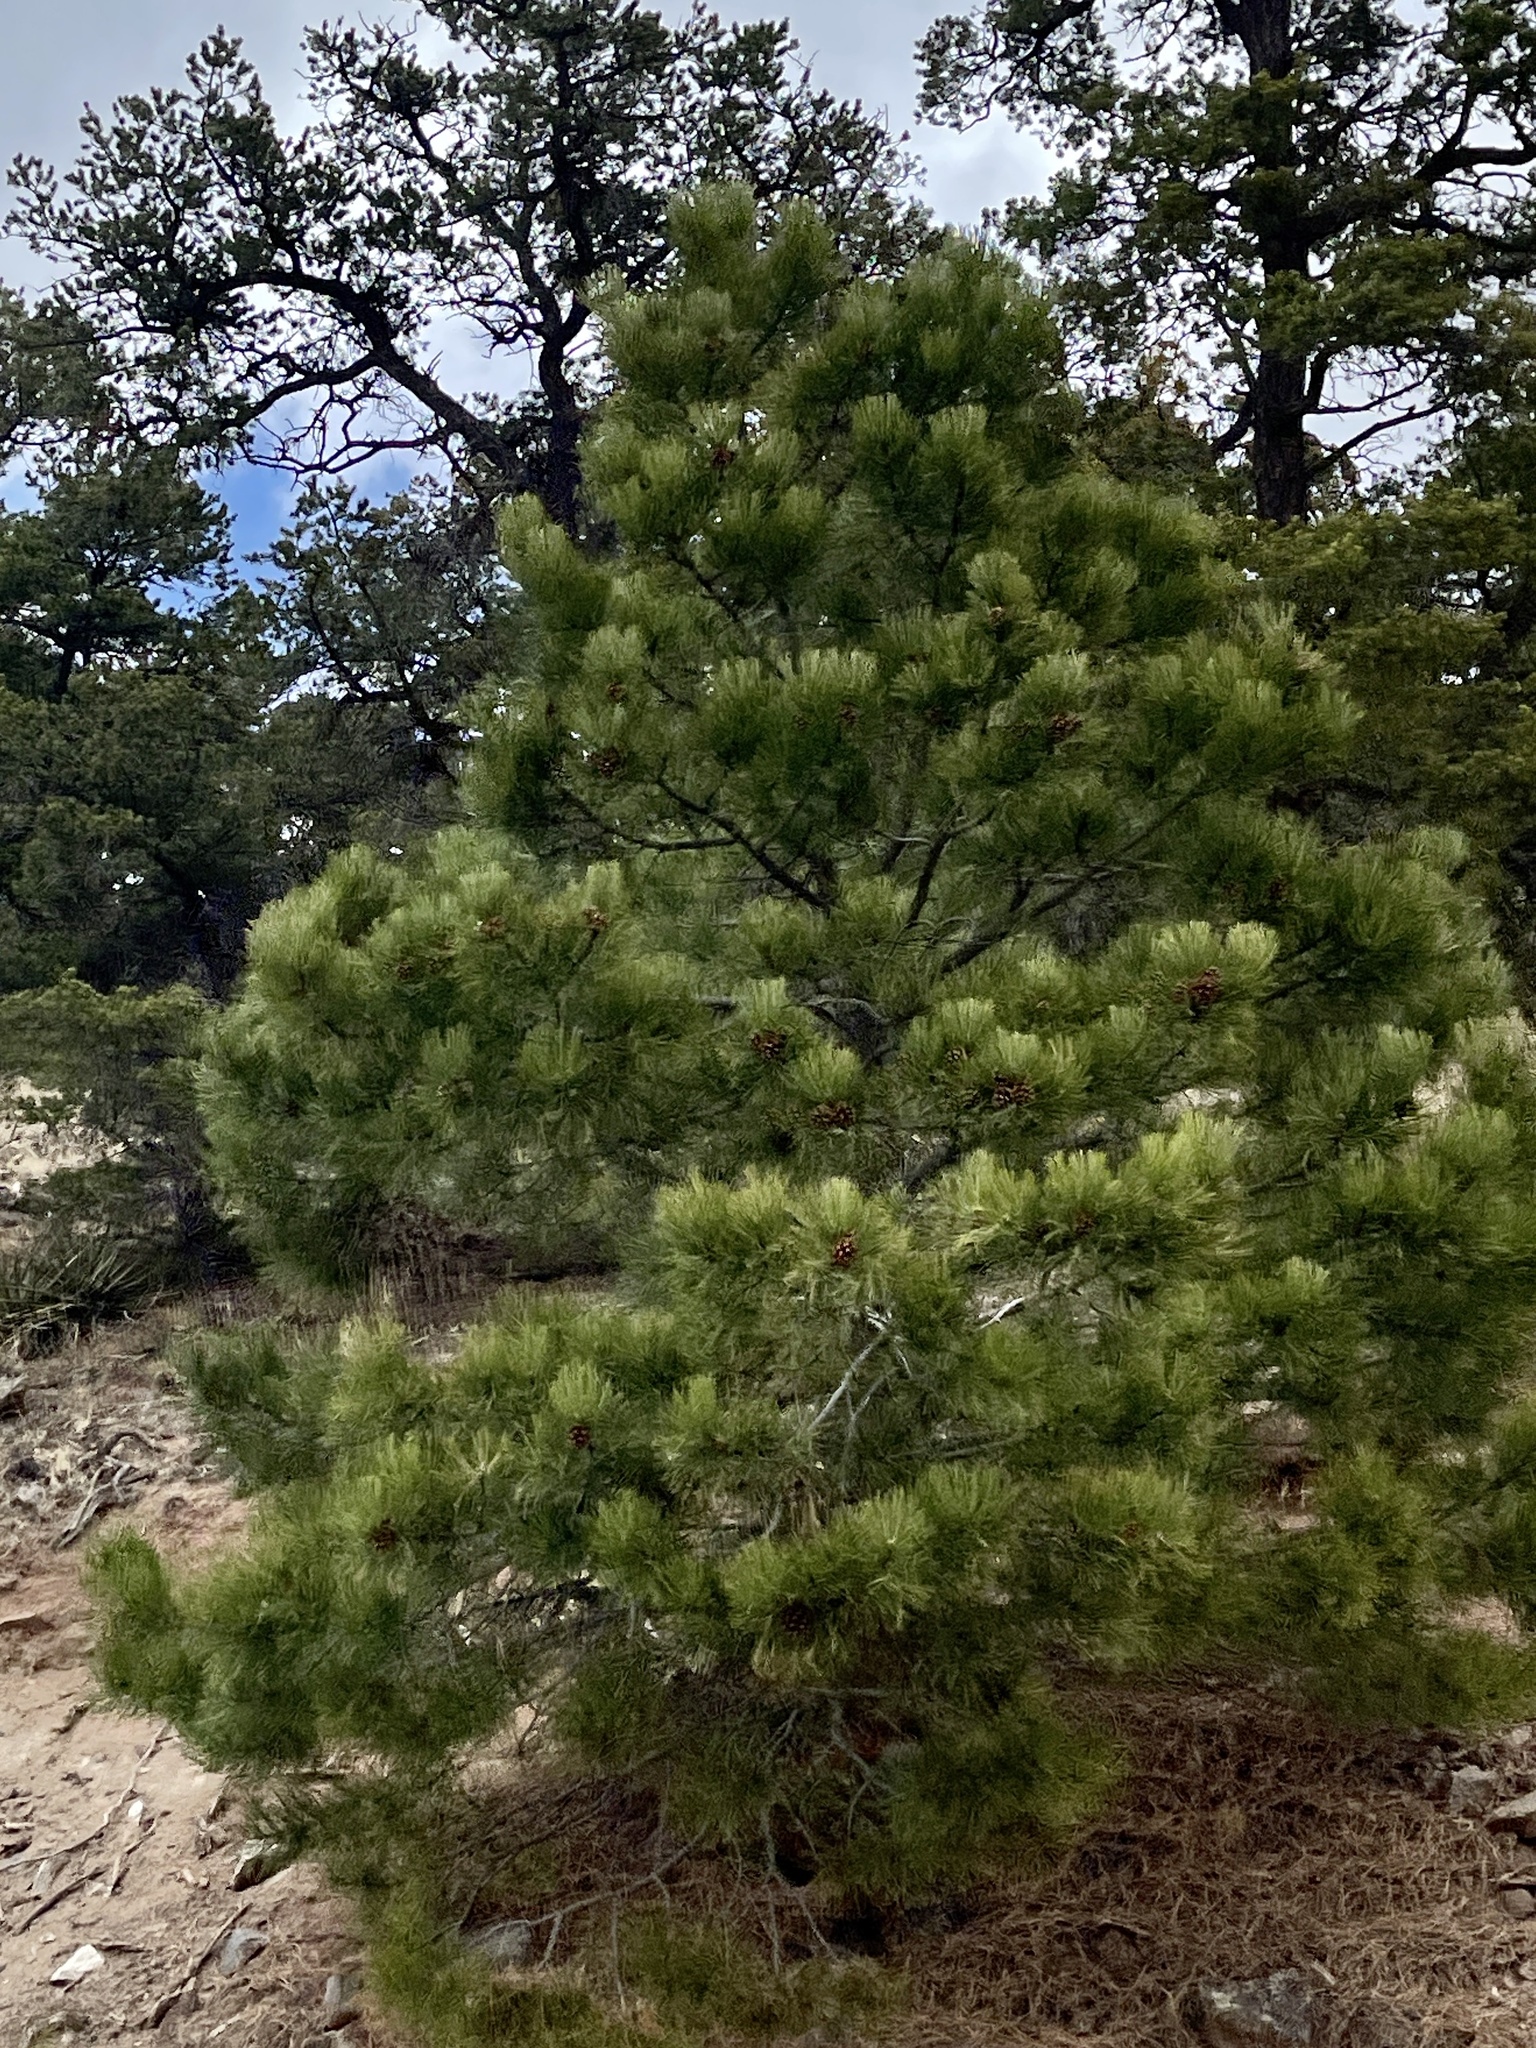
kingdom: Plantae
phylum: Tracheophyta
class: Pinopsida
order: Pinales
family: Pinaceae
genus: Pinus
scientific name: Pinus ponderosa
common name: Western yellow-pine
